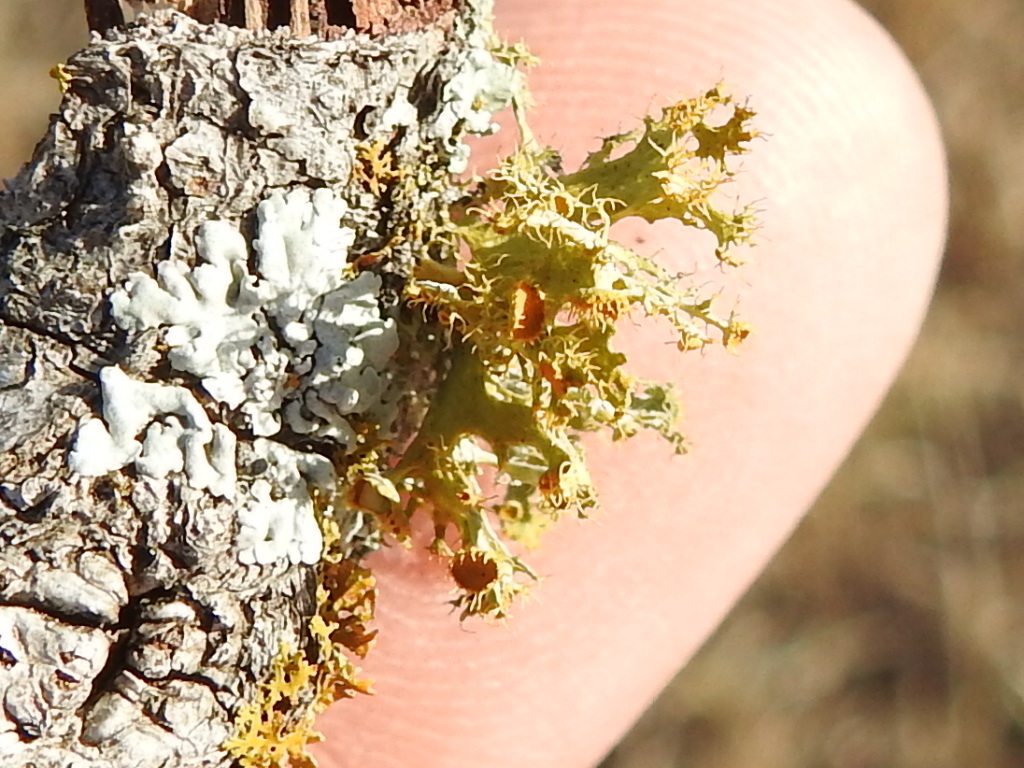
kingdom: Fungi
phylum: Ascomycota
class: Lecanoromycetes
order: Teloschistales
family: Teloschistaceae
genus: Niorma
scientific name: Niorma chrysophthalma
